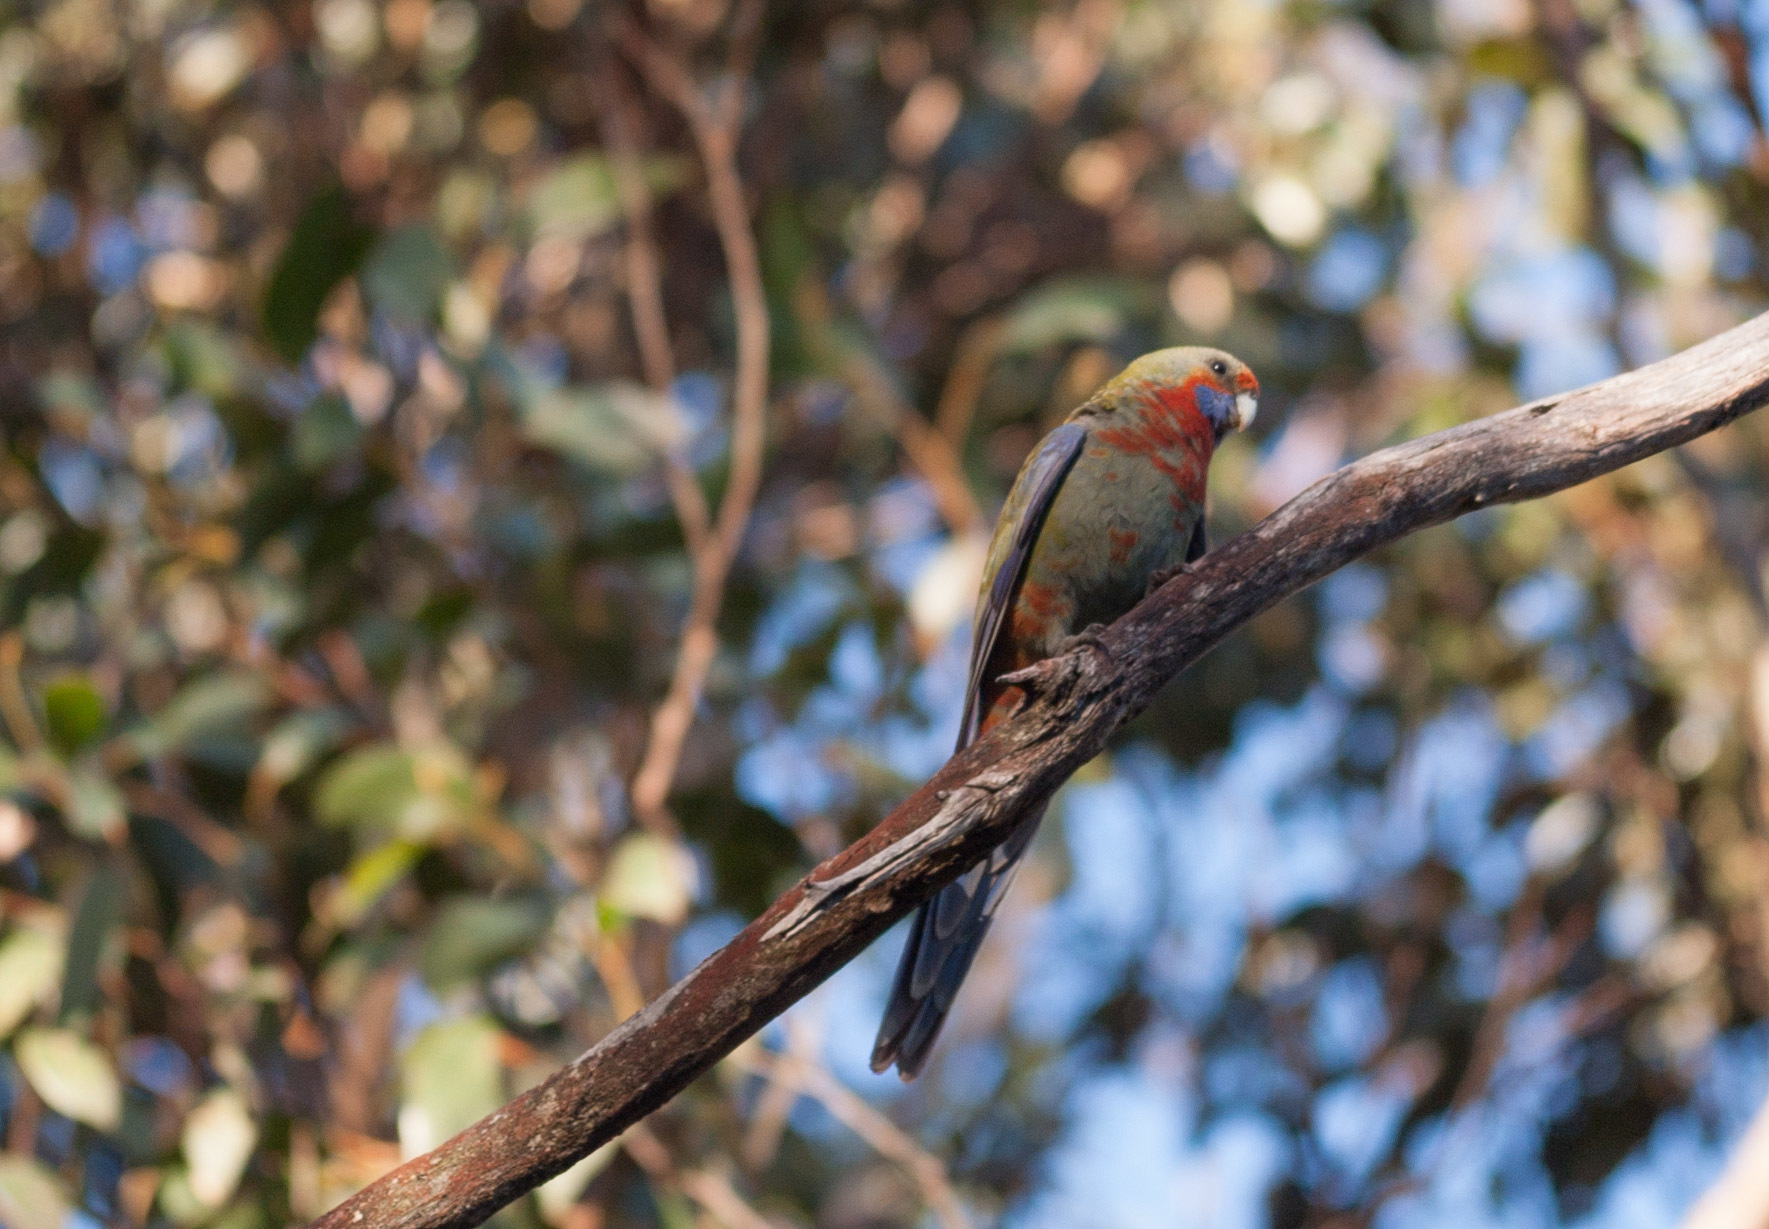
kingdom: Animalia
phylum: Chordata
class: Aves
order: Psittaciformes
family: Psittacidae
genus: Platycercus
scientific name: Platycercus elegans
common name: Crimson rosella
